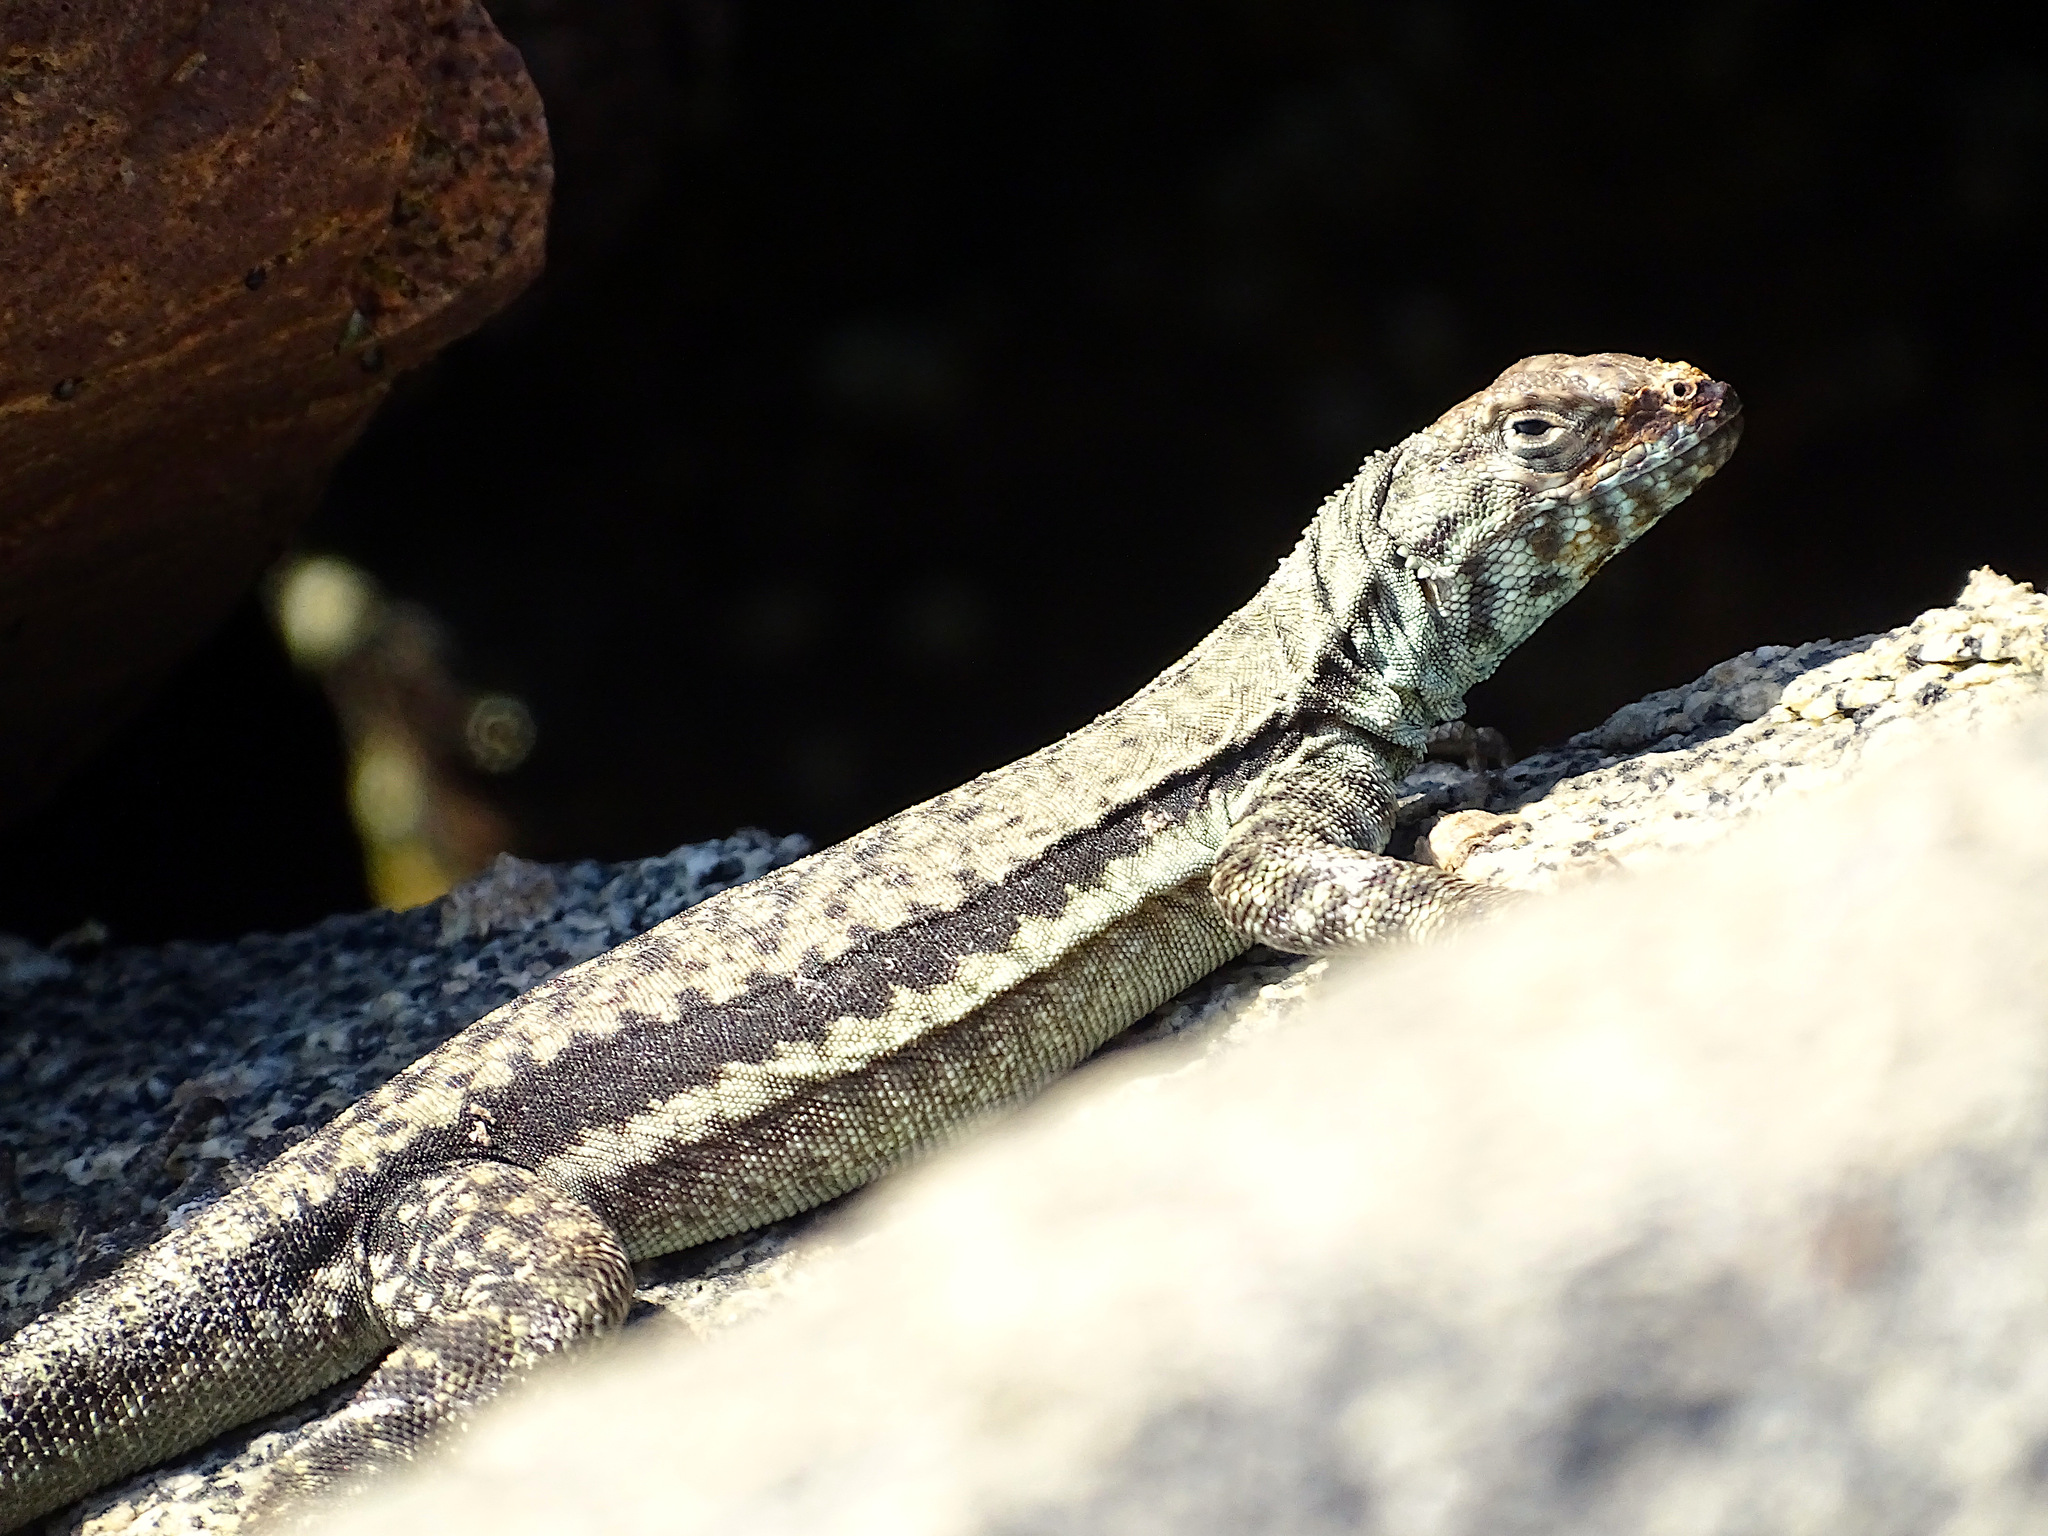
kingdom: Animalia
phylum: Chordata
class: Squamata
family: Tropiduridae
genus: Microlophus
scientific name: Microlophus atacamensis
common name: Atacamen pacific iguana
